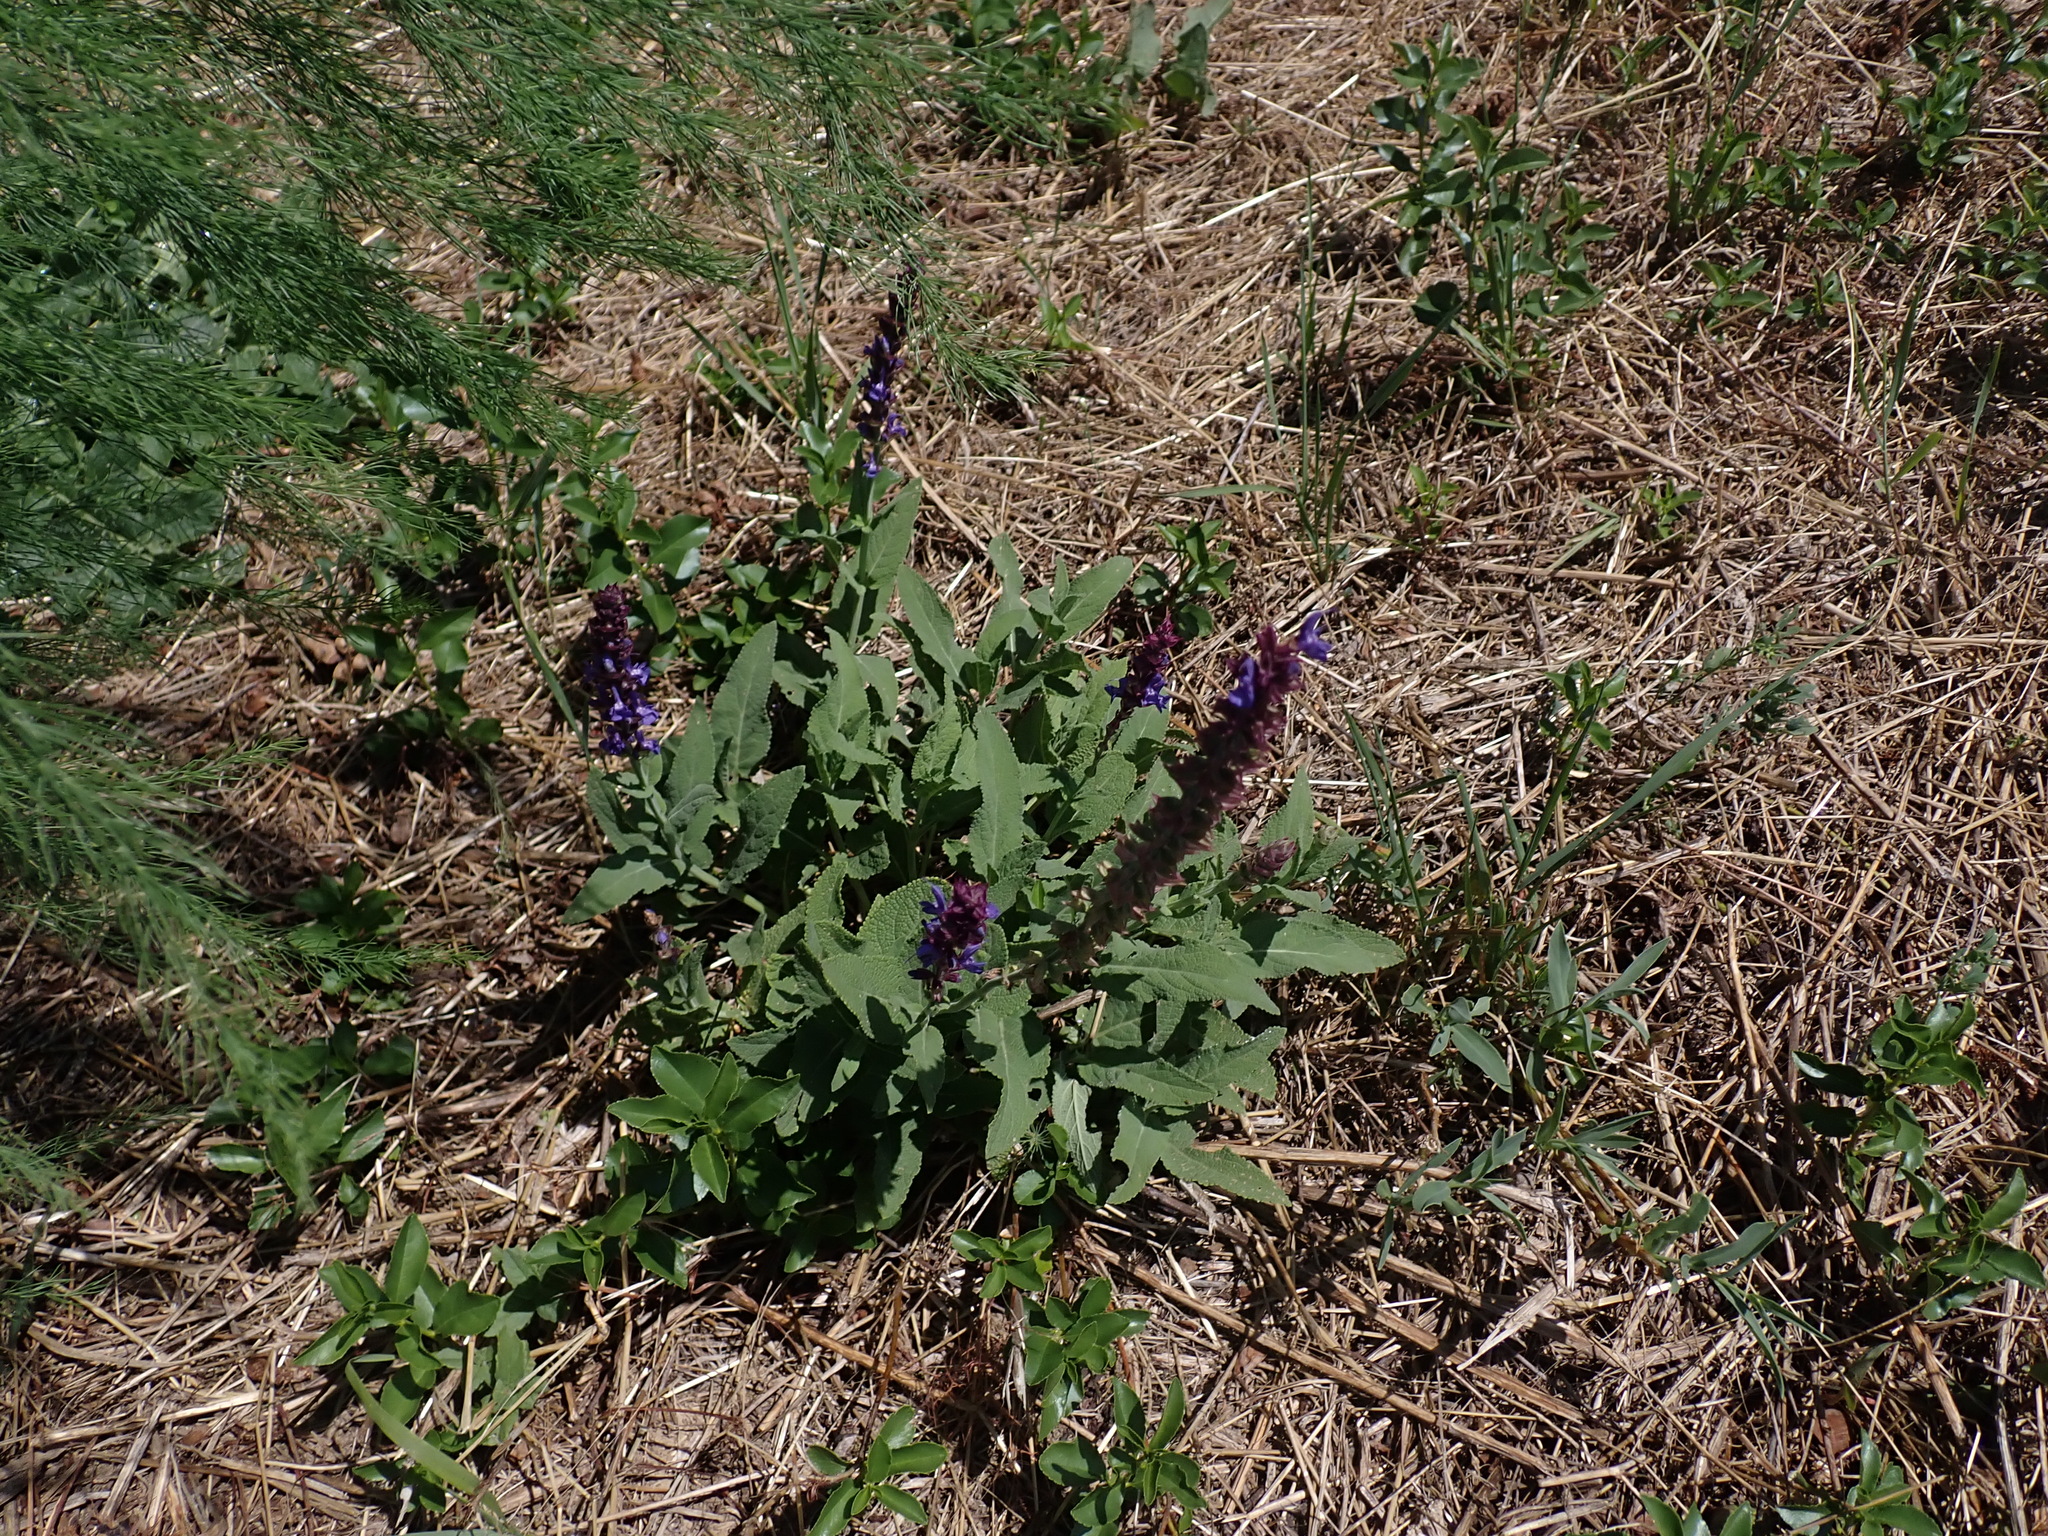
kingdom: Plantae
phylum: Tracheophyta
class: Magnoliopsida
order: Lamiales
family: Lamiaceae
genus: Salvia
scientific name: Salvia nemorosa
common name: Balkan clary
